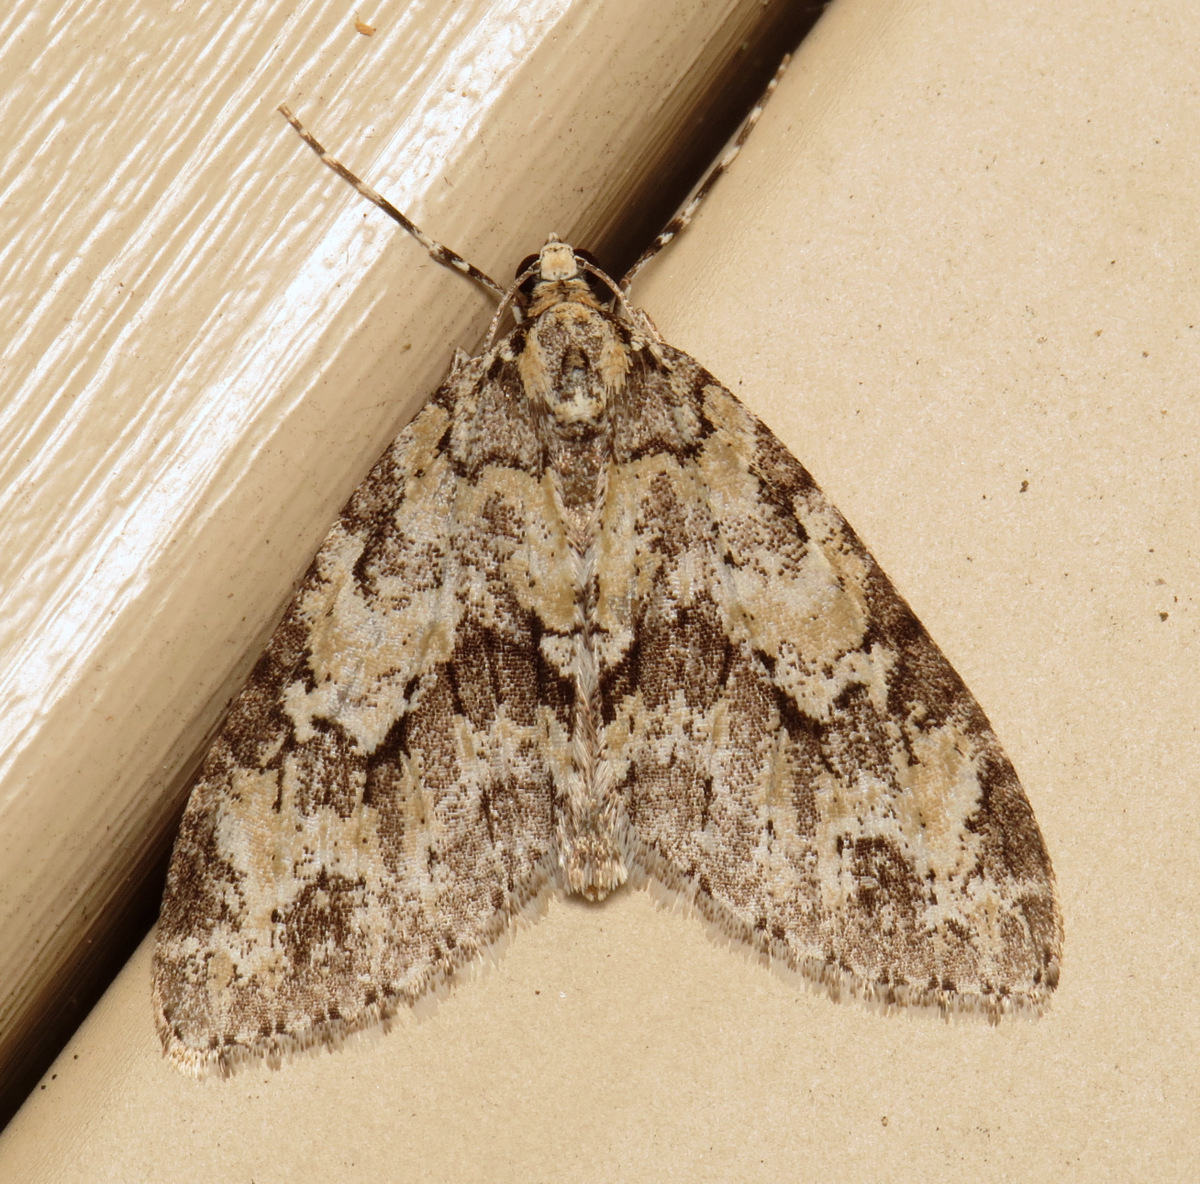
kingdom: Animalia
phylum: Arthropoda
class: Insecta
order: Lepidoptera
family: Geometridae
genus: Cladara
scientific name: Cladara limitaria
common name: Mottled gray carpet
